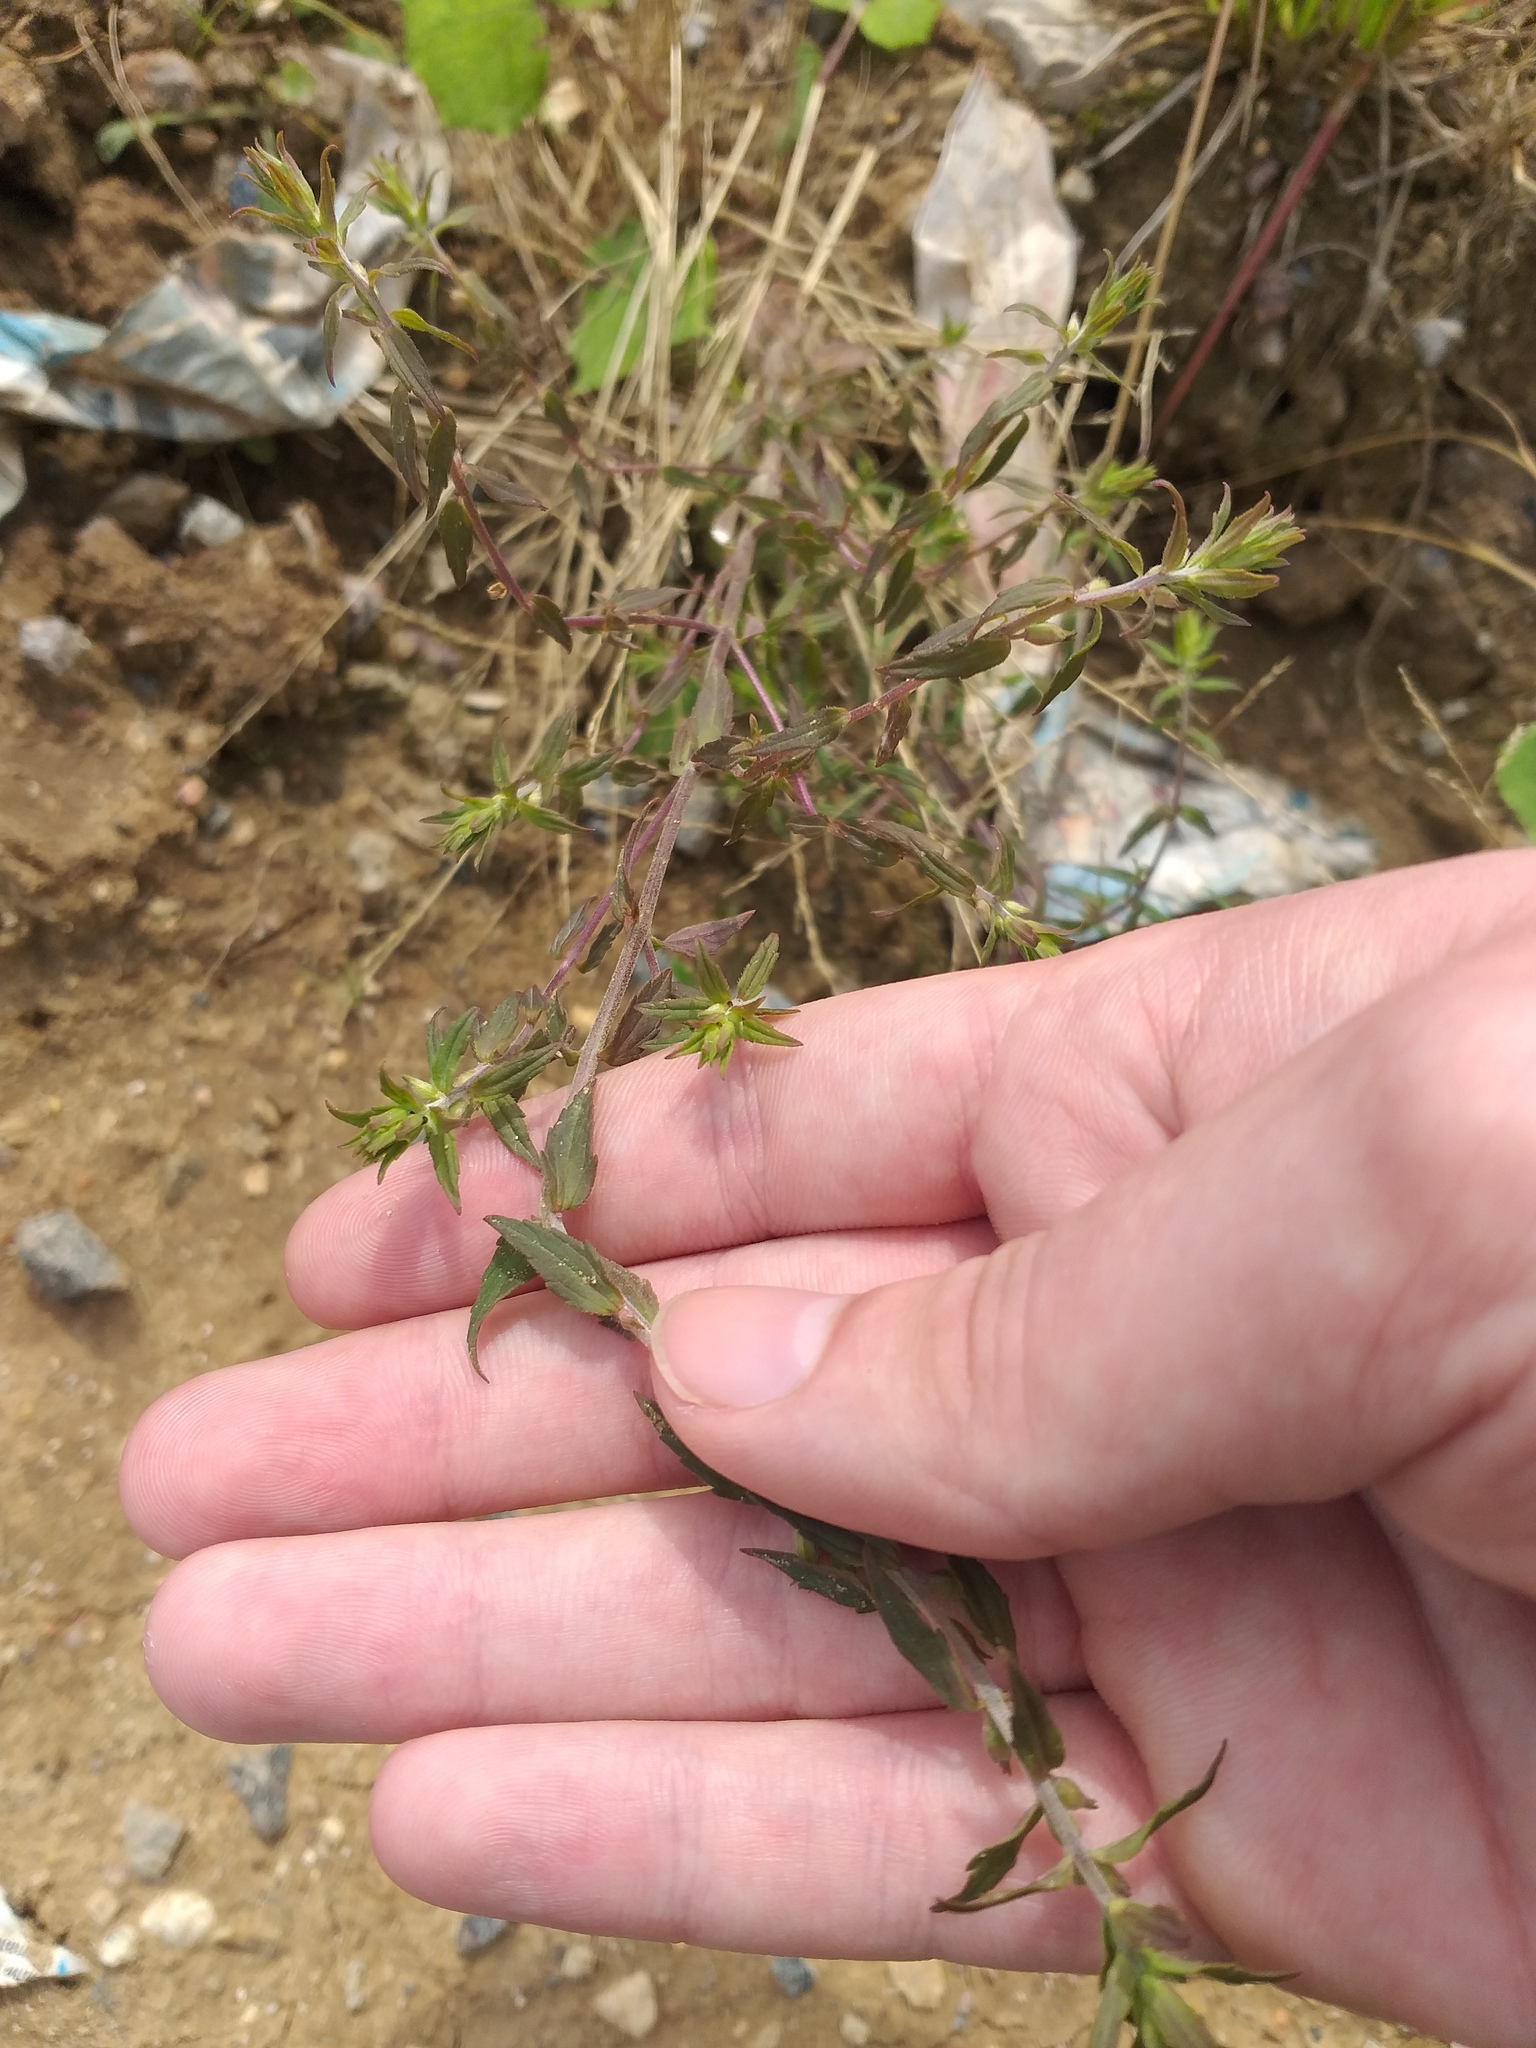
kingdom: Plantae
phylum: Tracheophyta
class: Magnoliopsida
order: Lamiales
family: Orobanchaceae
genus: Odontites
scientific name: Odontites vulgaris
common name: Broomrape
